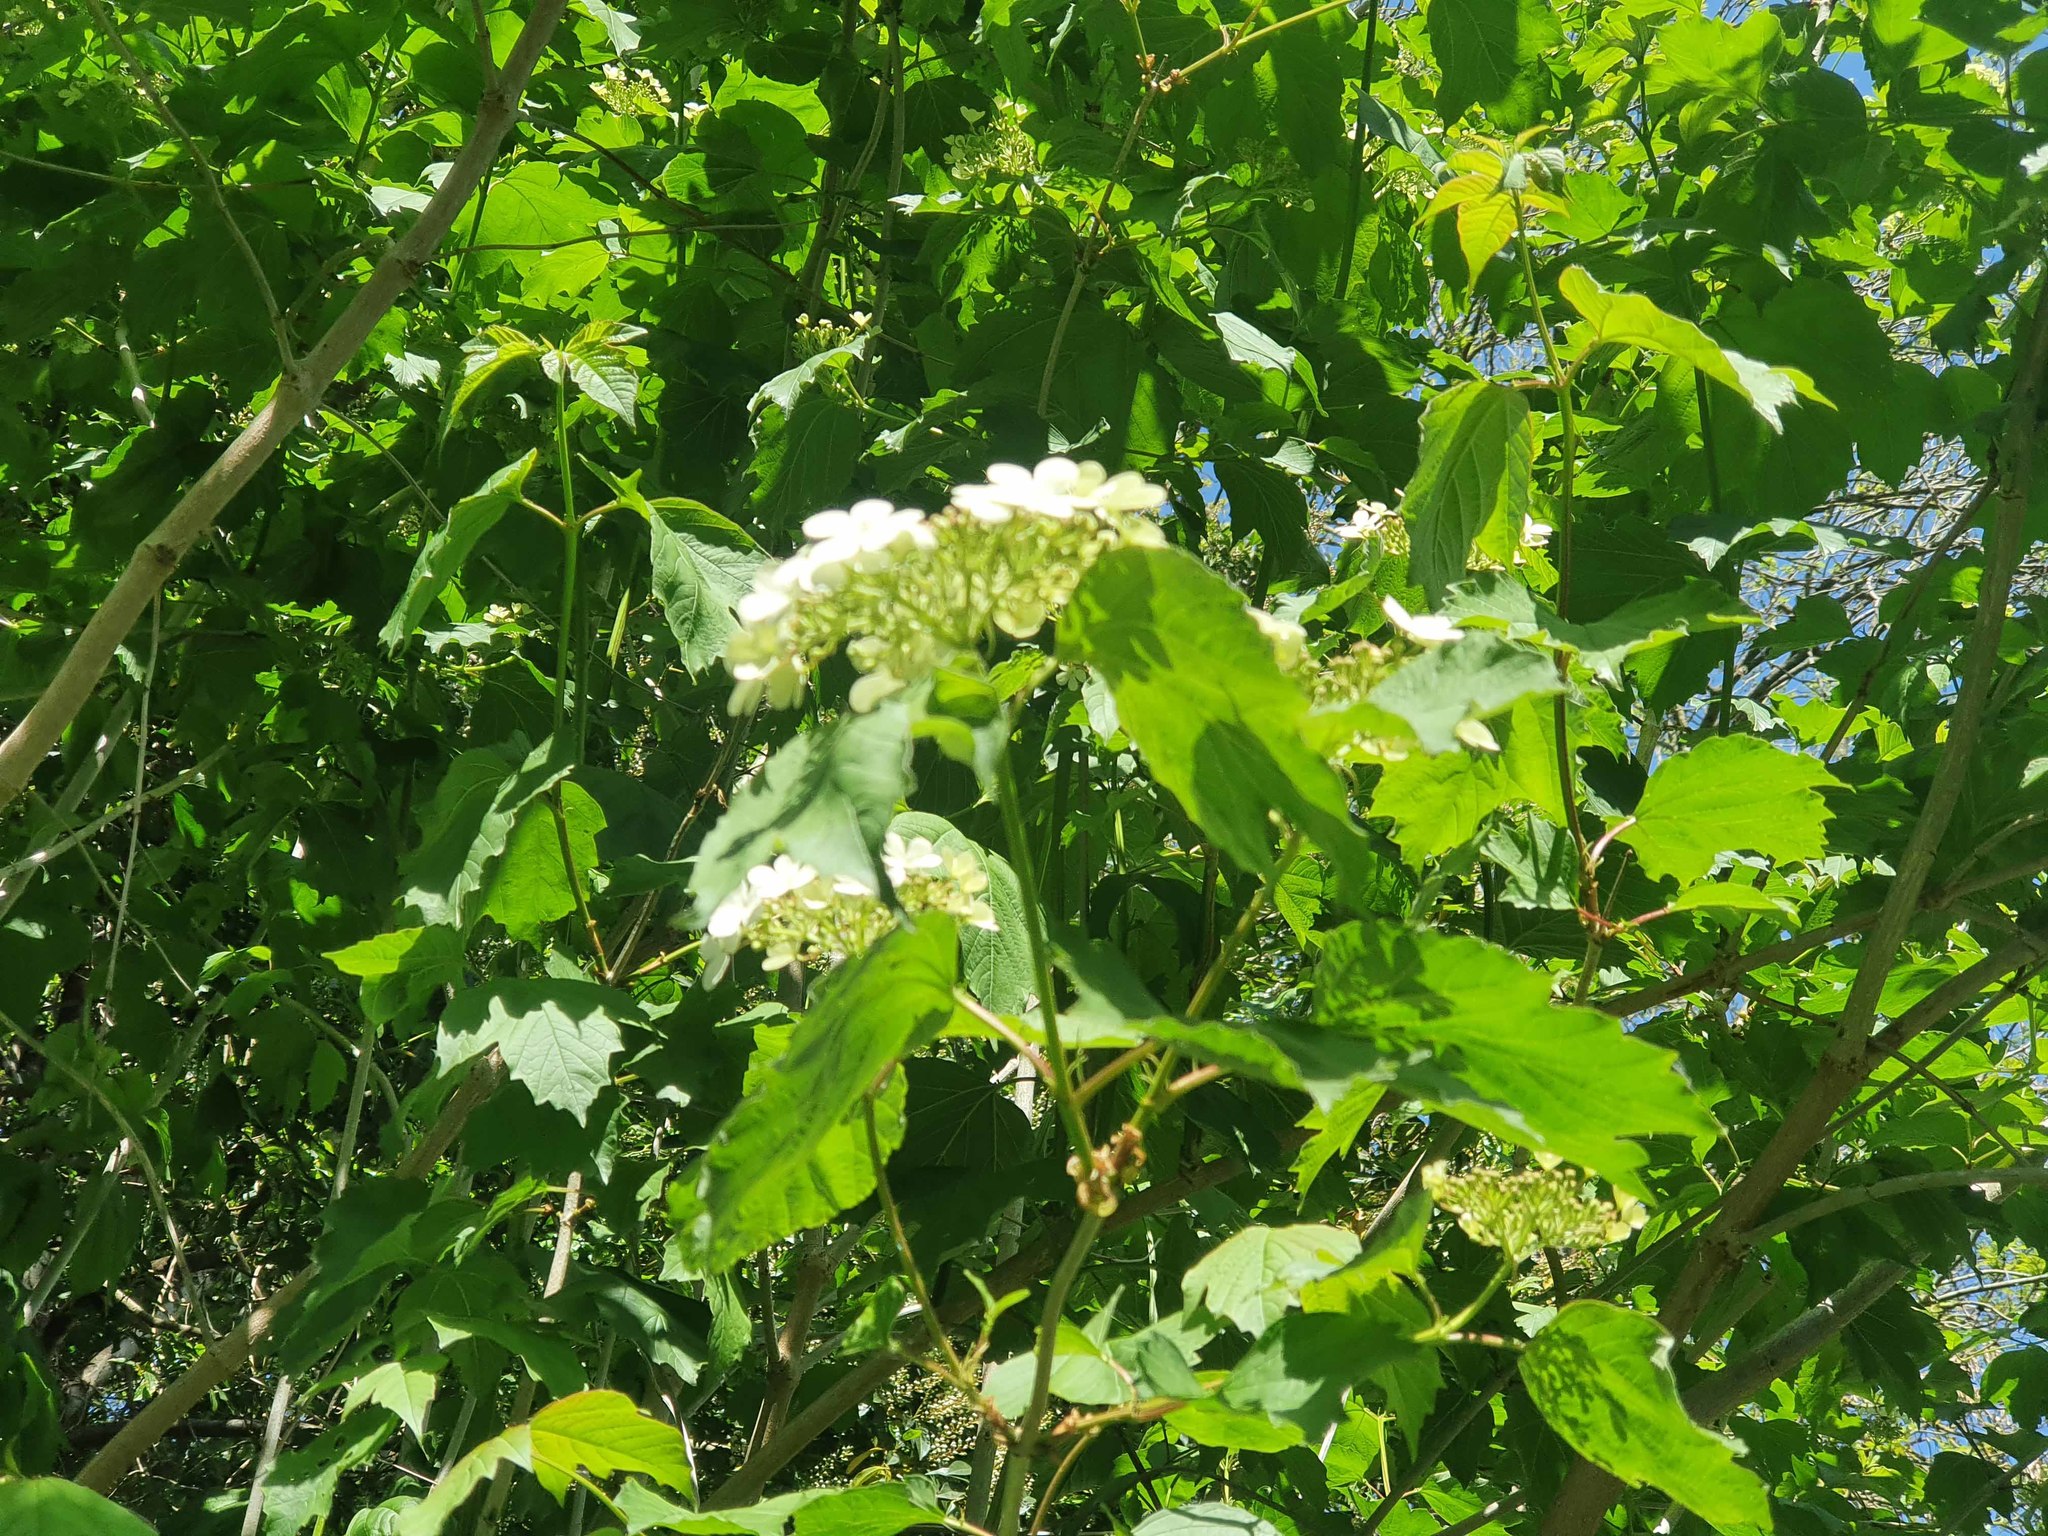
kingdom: Plantae
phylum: Tracheophyta
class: Magnoliopsida
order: Dipsacales
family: Viburnaceae
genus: Viburnum
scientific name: Viburnum opulus
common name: Guelder-rose
